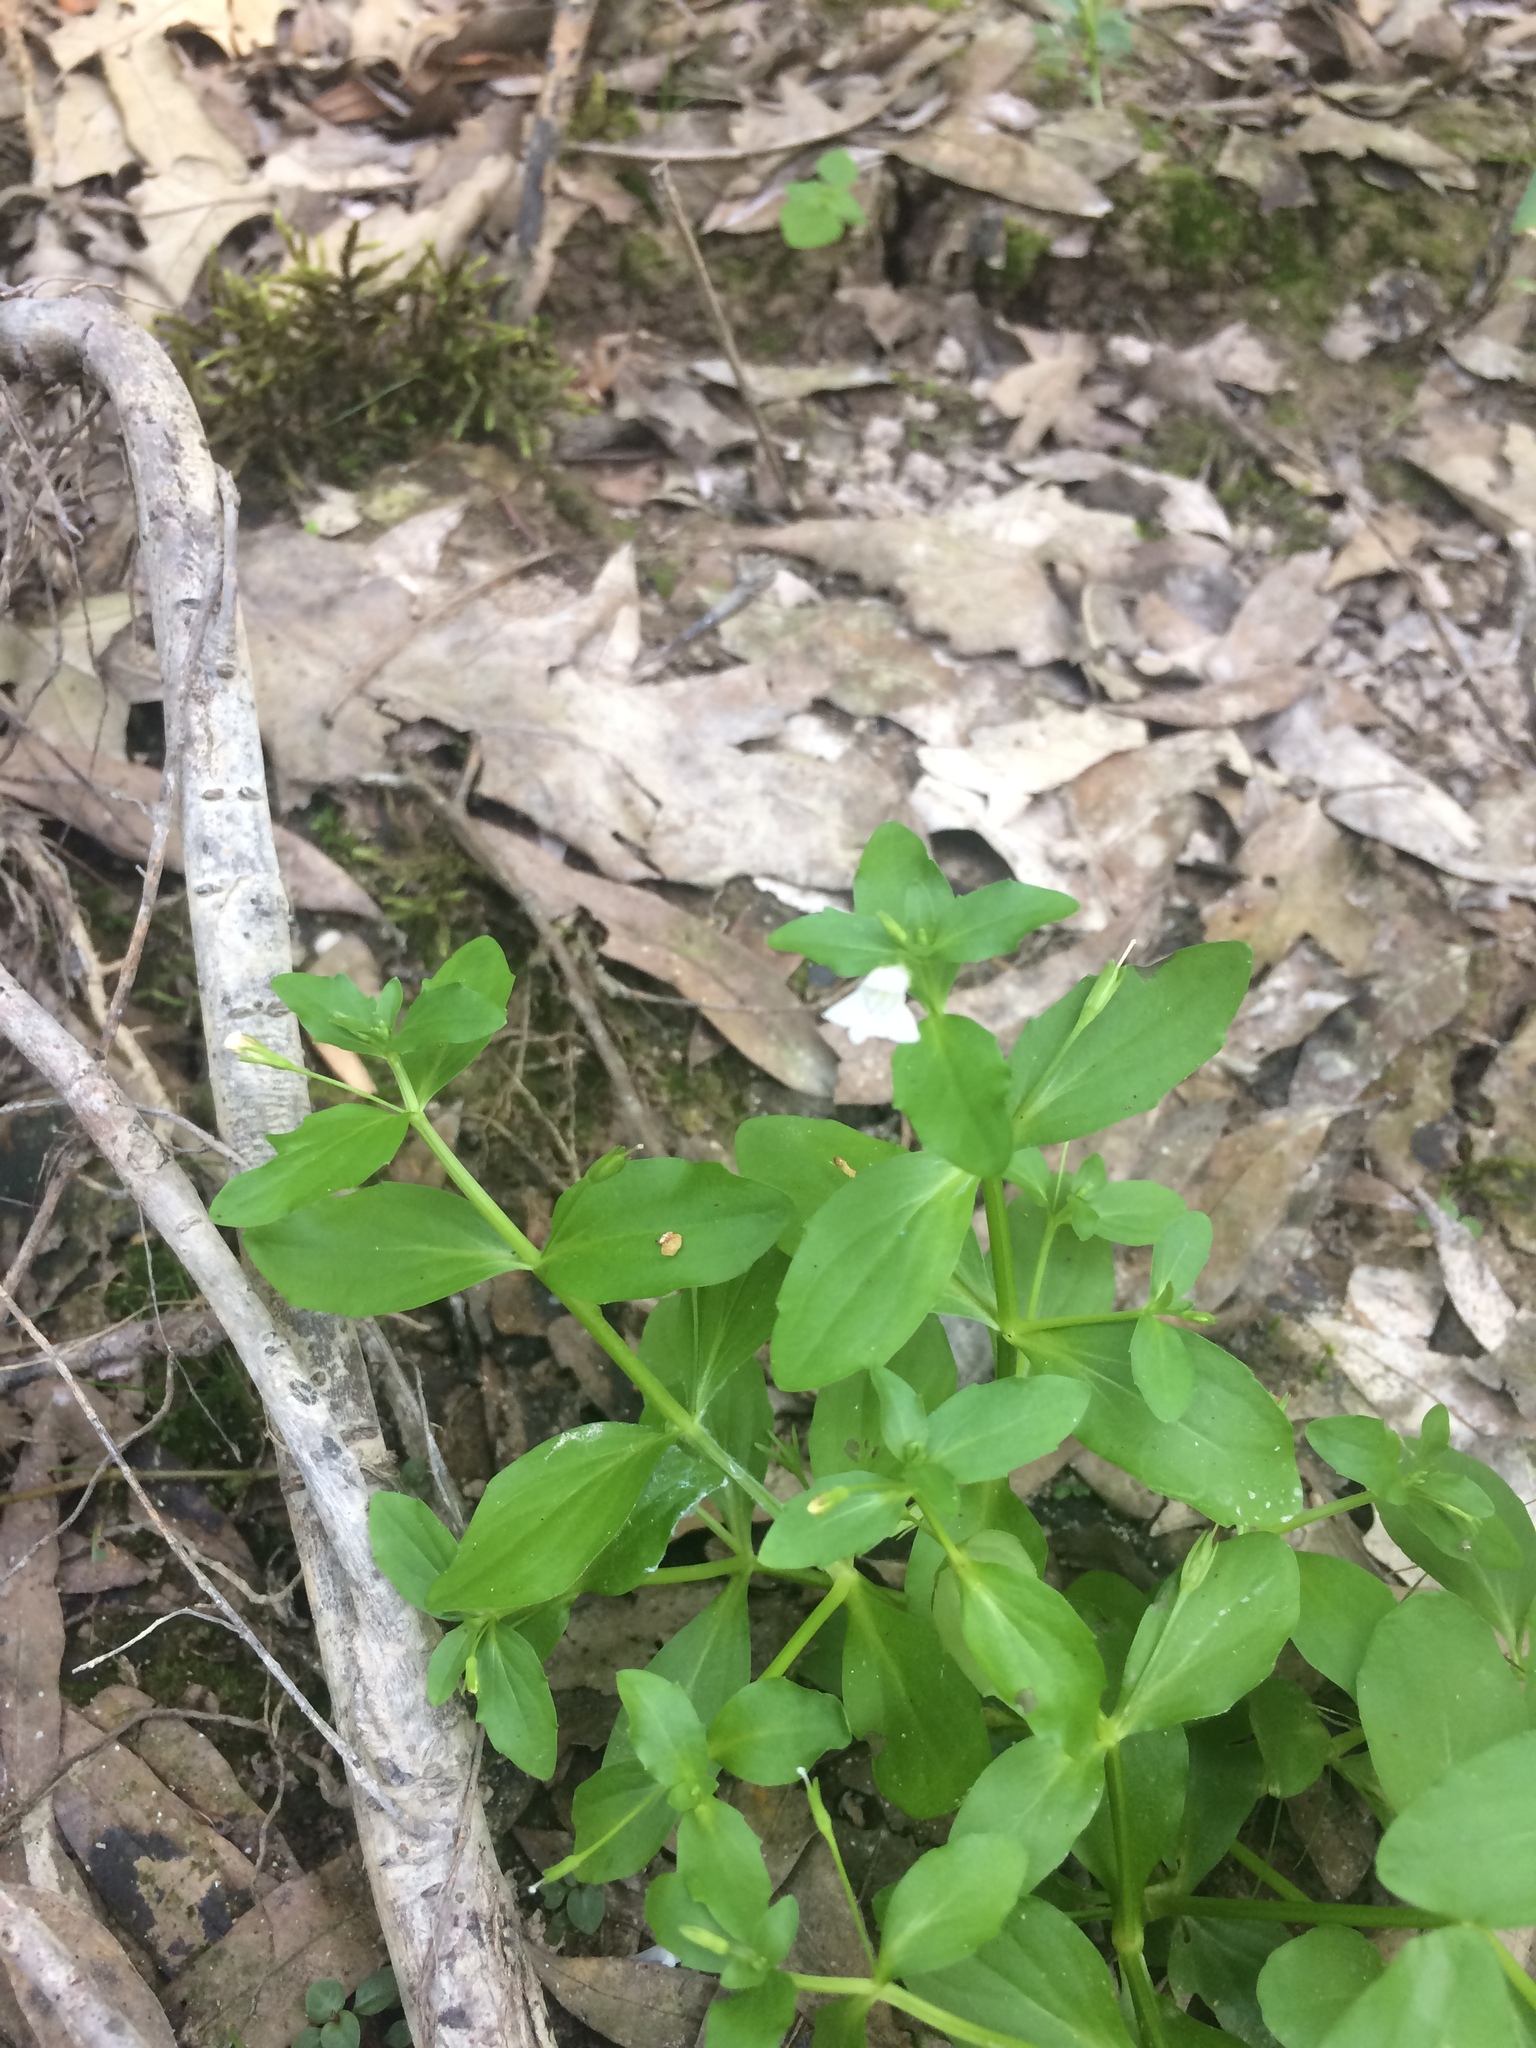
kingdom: Plantae
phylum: Tracheophyta
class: Magnoliopsida
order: Lamiales
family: Linderniaceae
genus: Lindernia
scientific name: Lindernia dubia
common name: Annual false pimpernel
